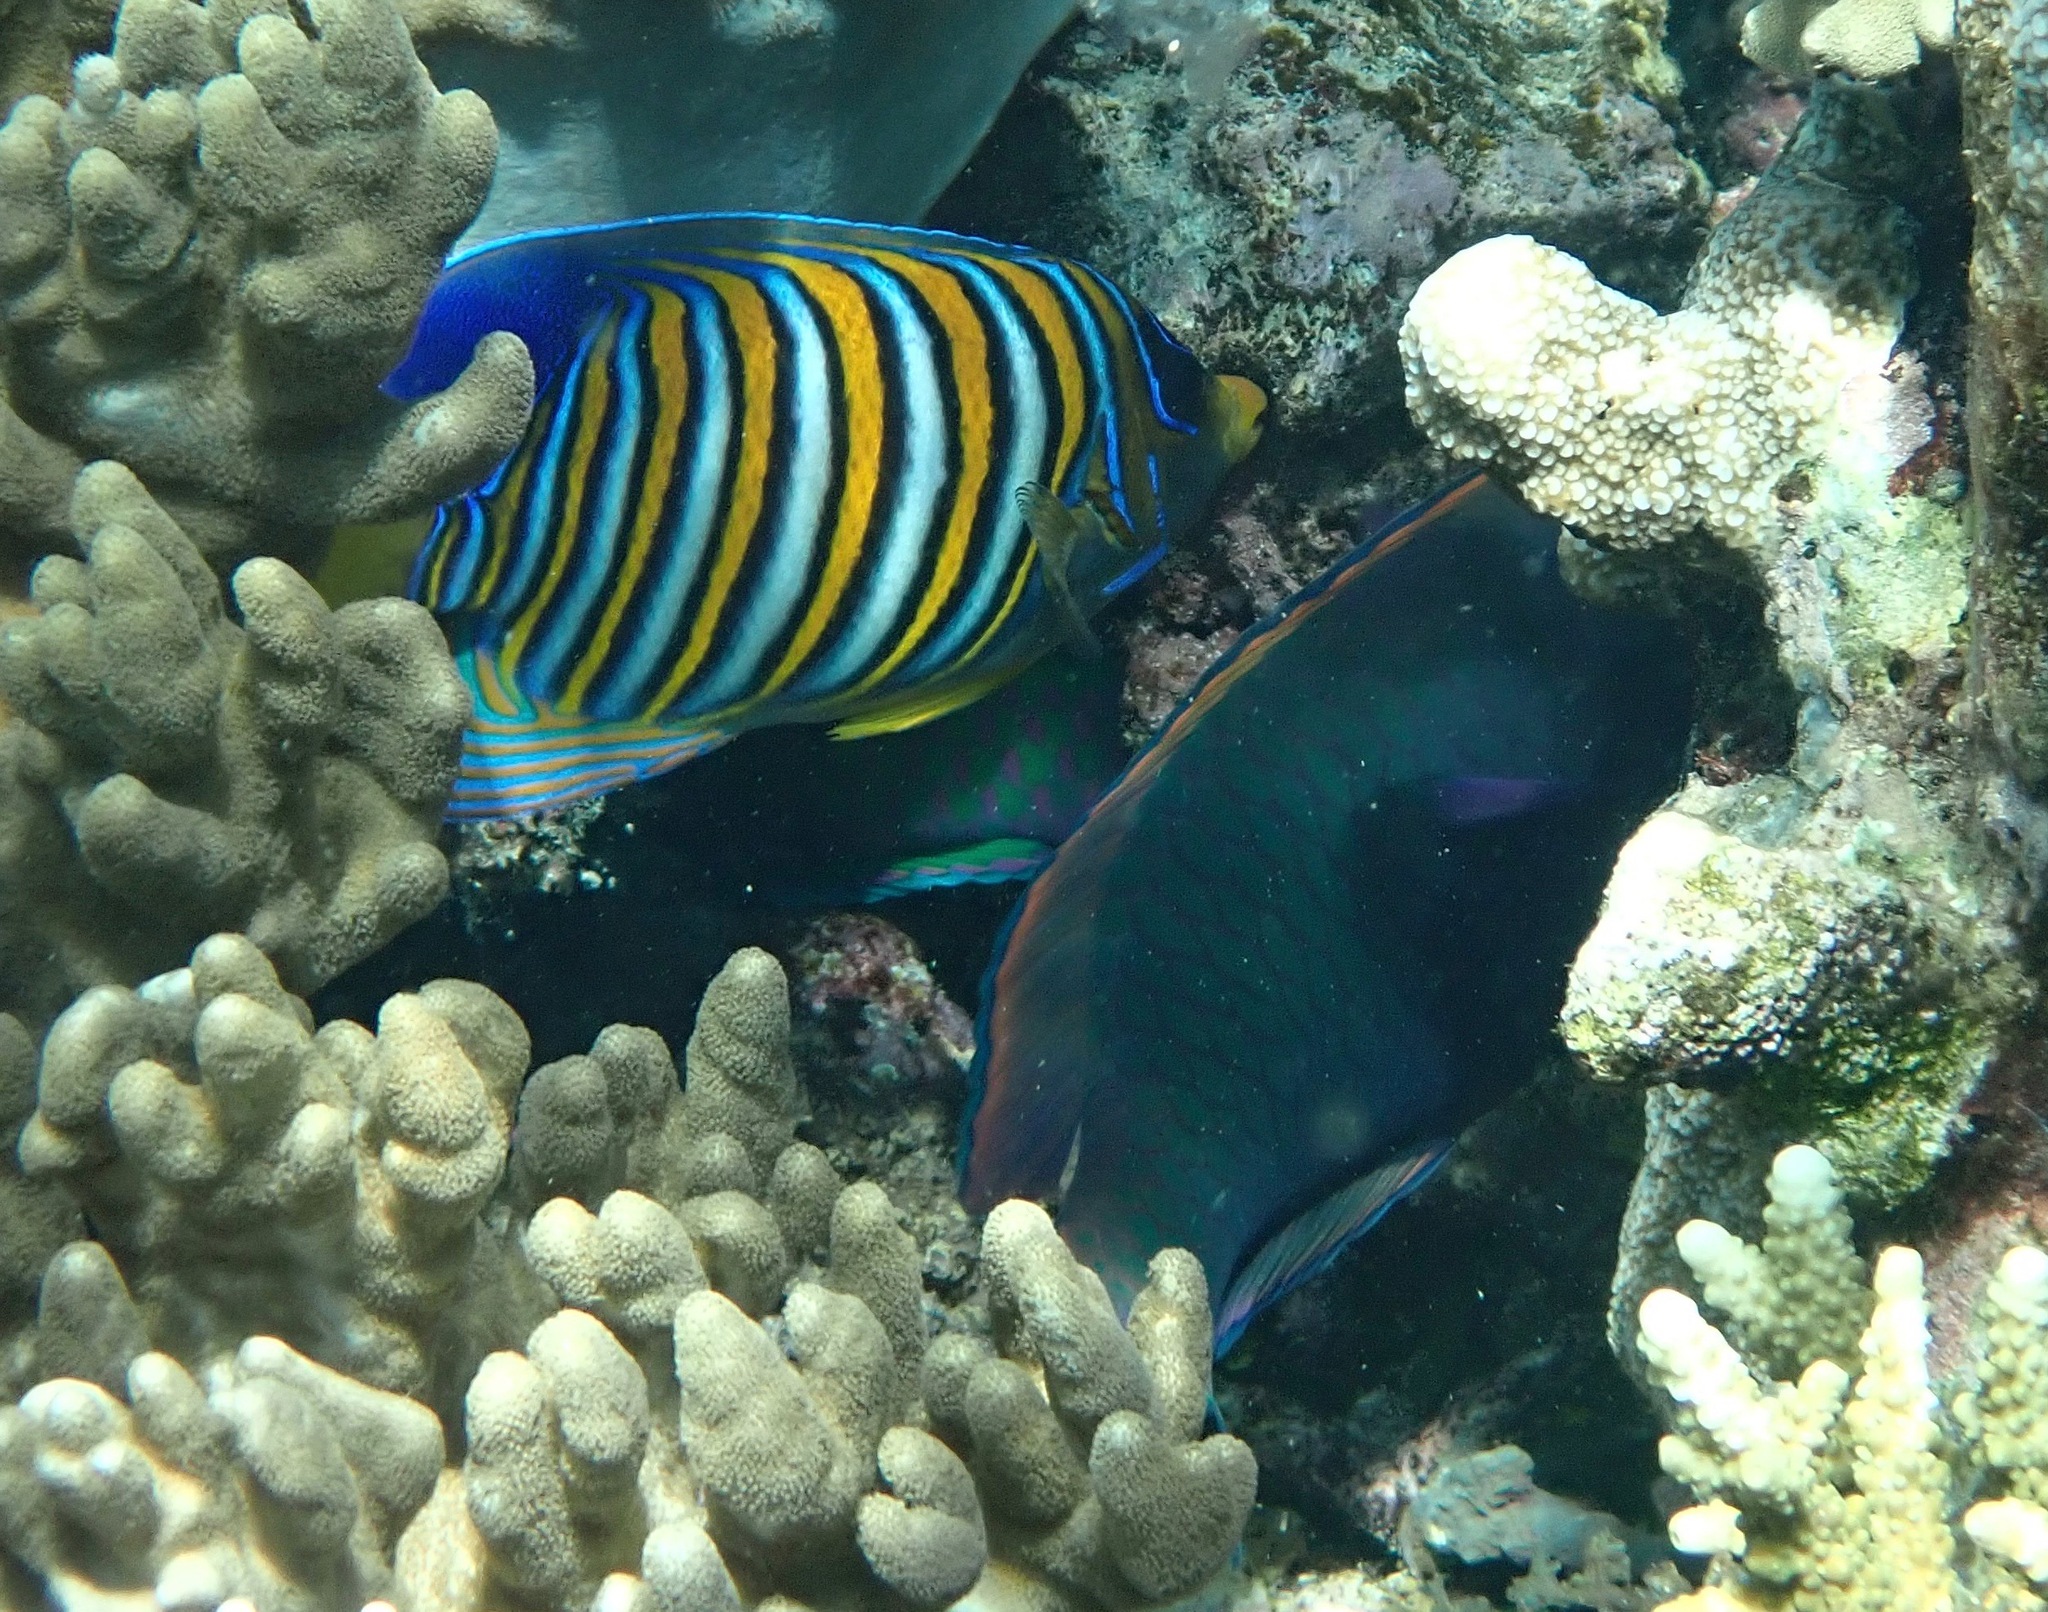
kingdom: Animalia
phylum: Chordata
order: Perciformes
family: Pomacanthidae
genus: Pygoplites
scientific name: Pygoplites diacanthus
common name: Regal angelfish
